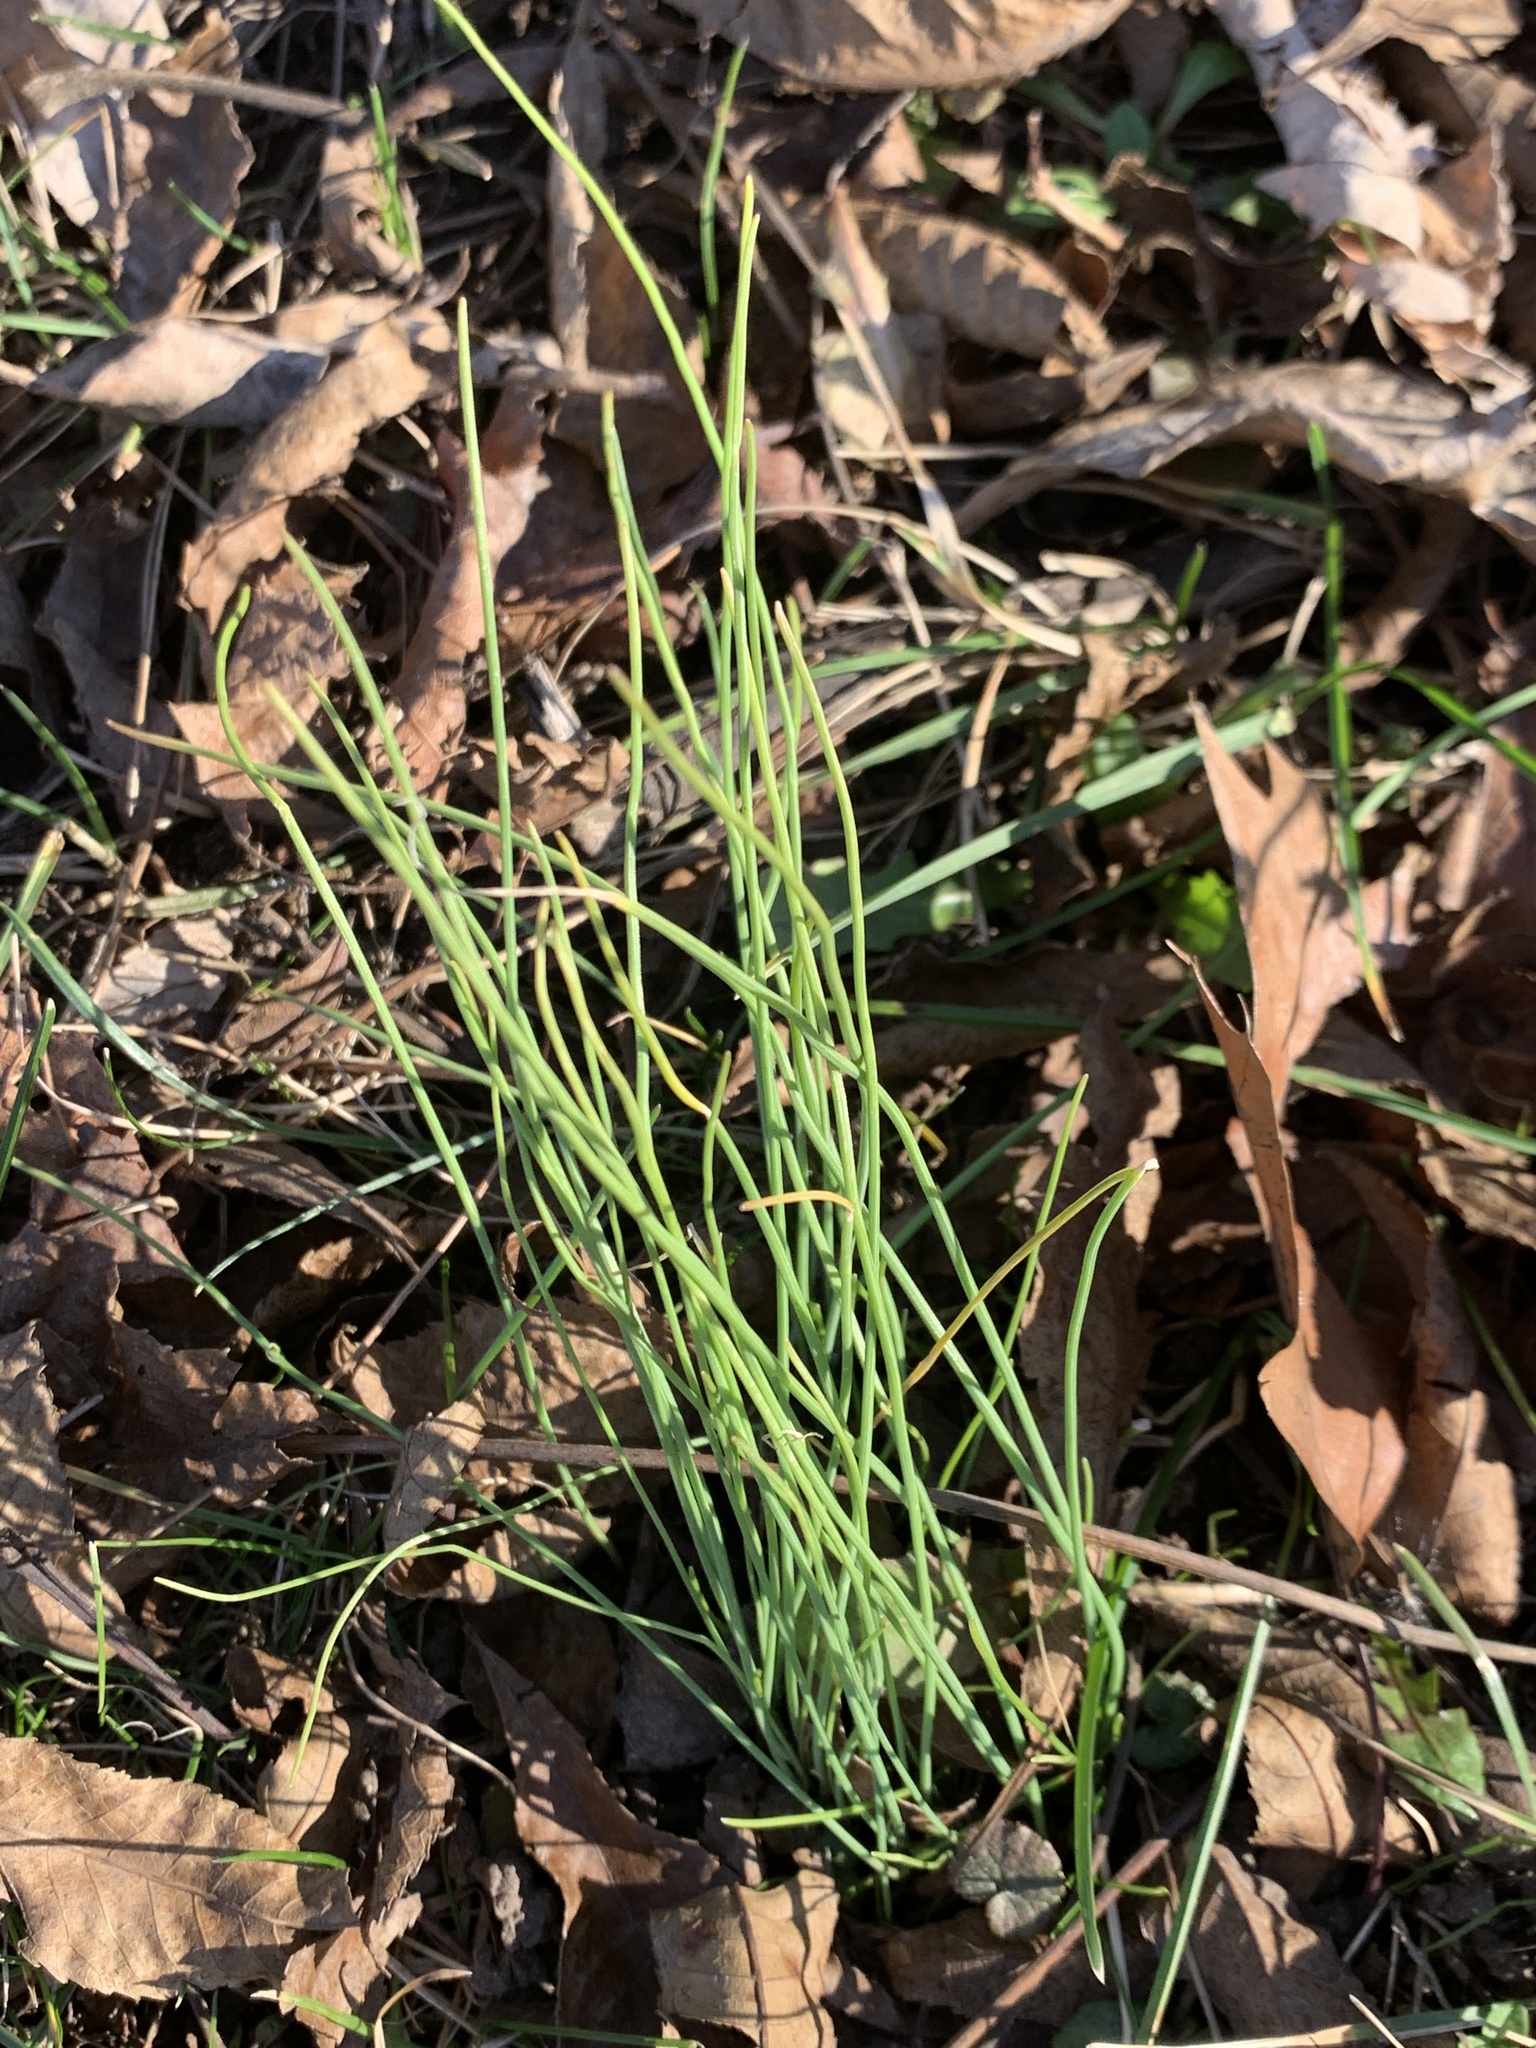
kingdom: Plantae
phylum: Tracheophyta
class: Liliopsida
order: Asparagales
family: Amaryllidaceae
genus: Allium
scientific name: Allium vineale
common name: Crow garlic
